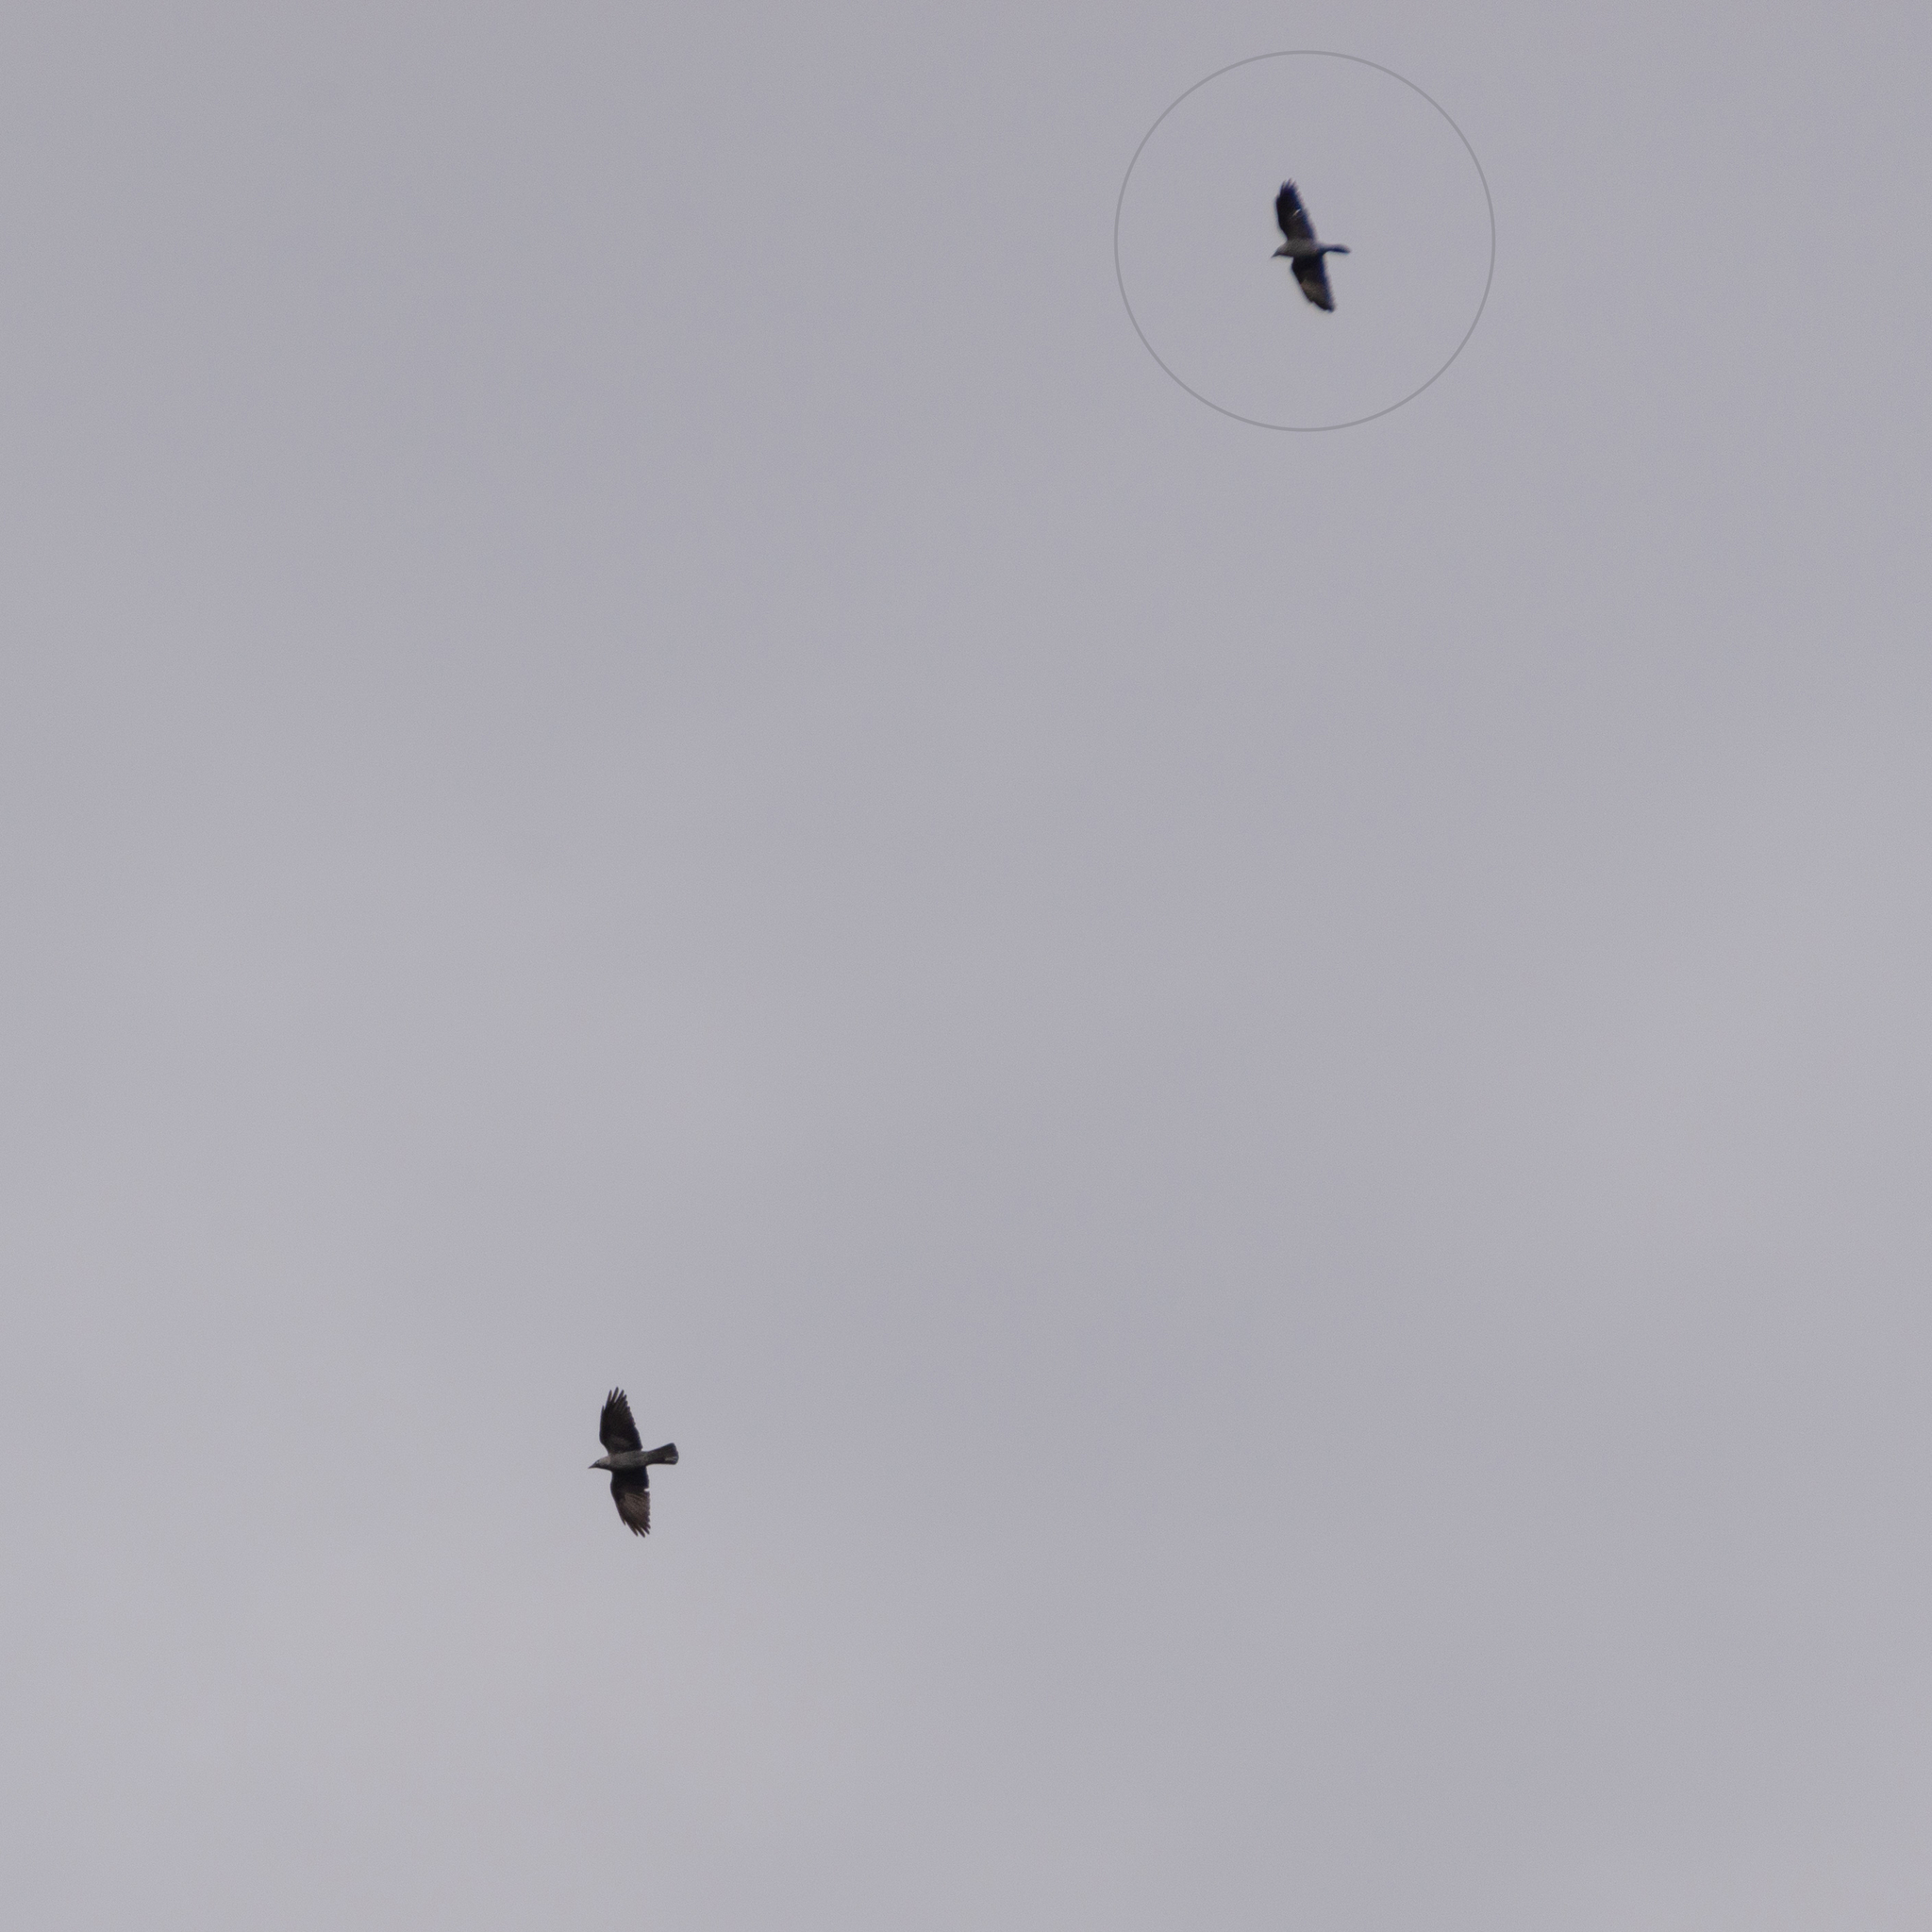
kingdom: Animalia
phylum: Chordata
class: Aves
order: Passeriformes
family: Corvidae
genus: Coloeus
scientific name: Coloeus monedula
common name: Western jackdaw
